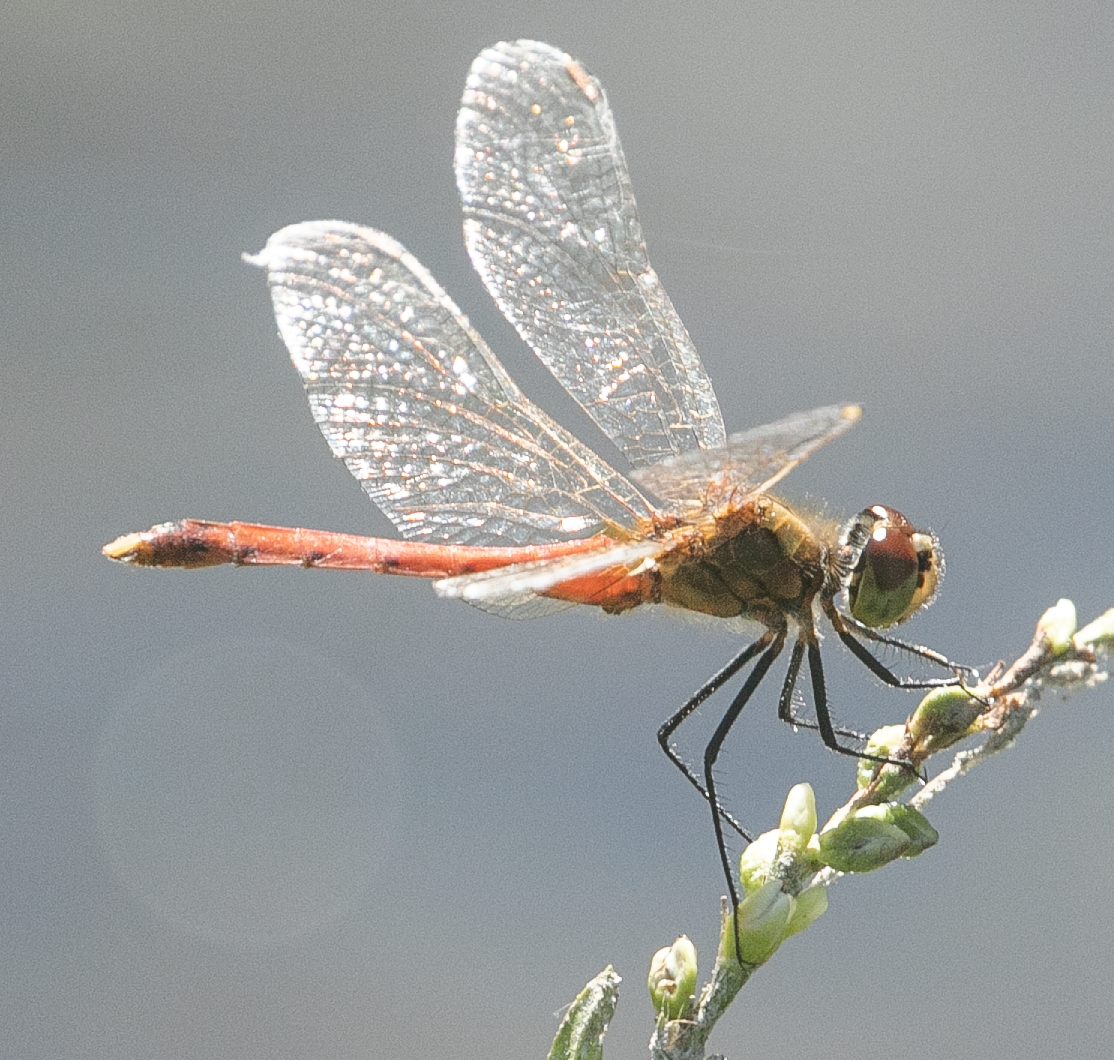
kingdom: Animalia
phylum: Arthropoda
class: Insecta
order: Odonata
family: Libellulidae
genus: Sympetrum
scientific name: Sympetrum depressiusculum
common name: Spotted darter
